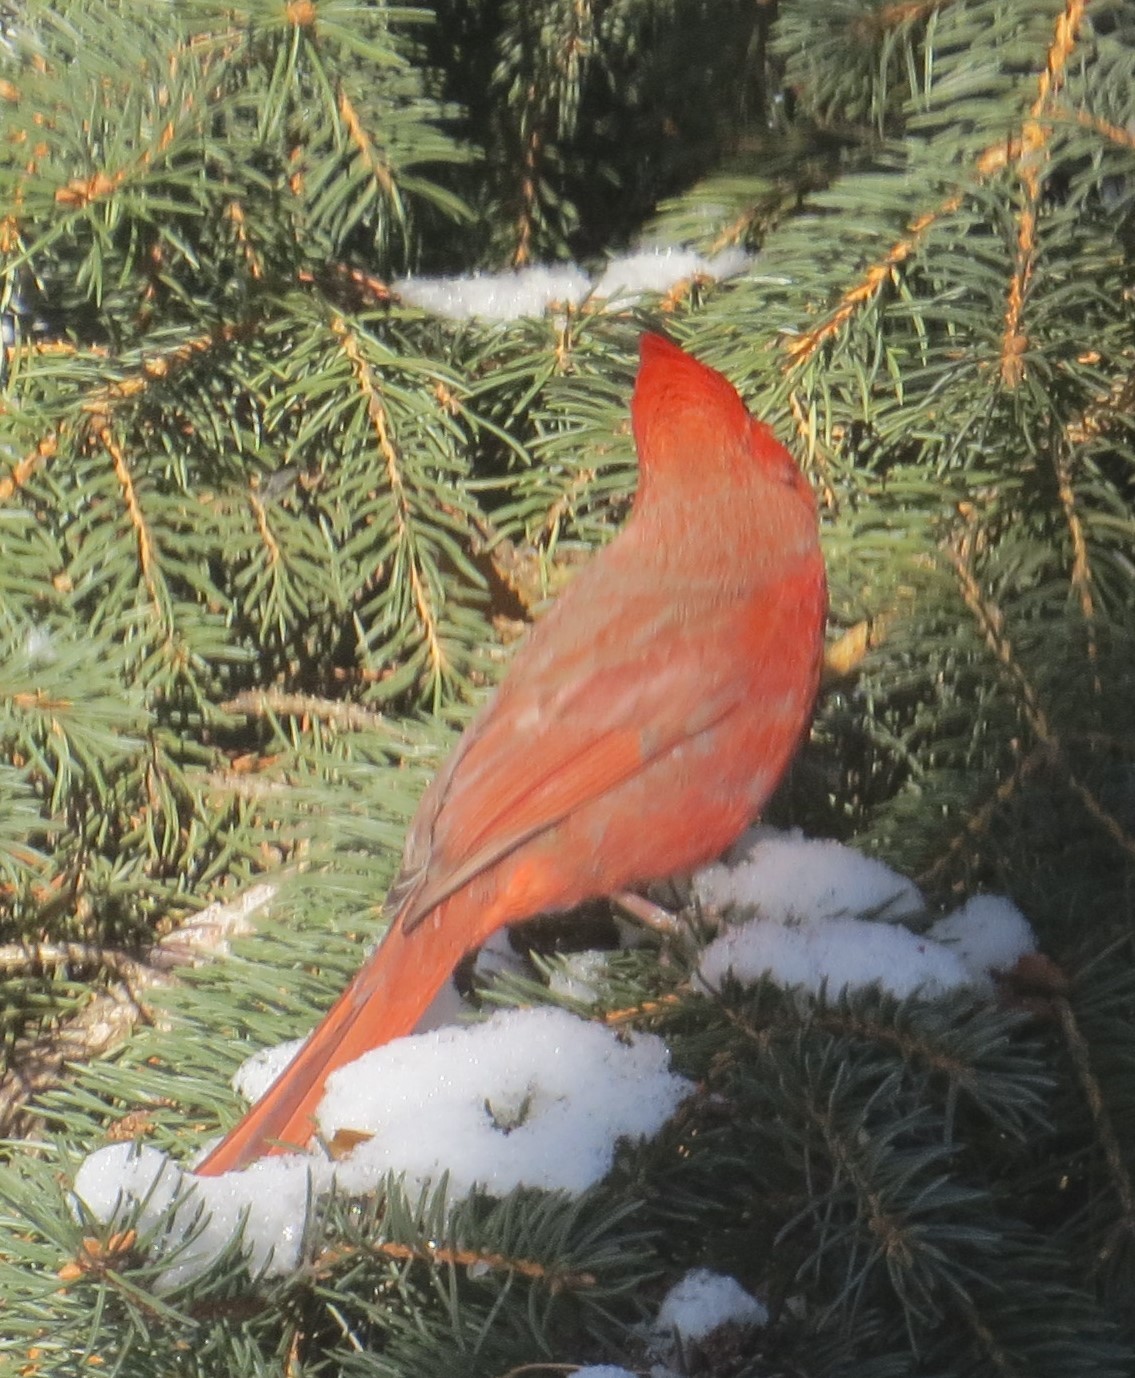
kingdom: Animalia
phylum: Chordata
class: Aves
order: Passeriformes
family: Cardinalidae
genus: Cardinalis
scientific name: Cardinalis cardinalis
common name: Northern cardinal
